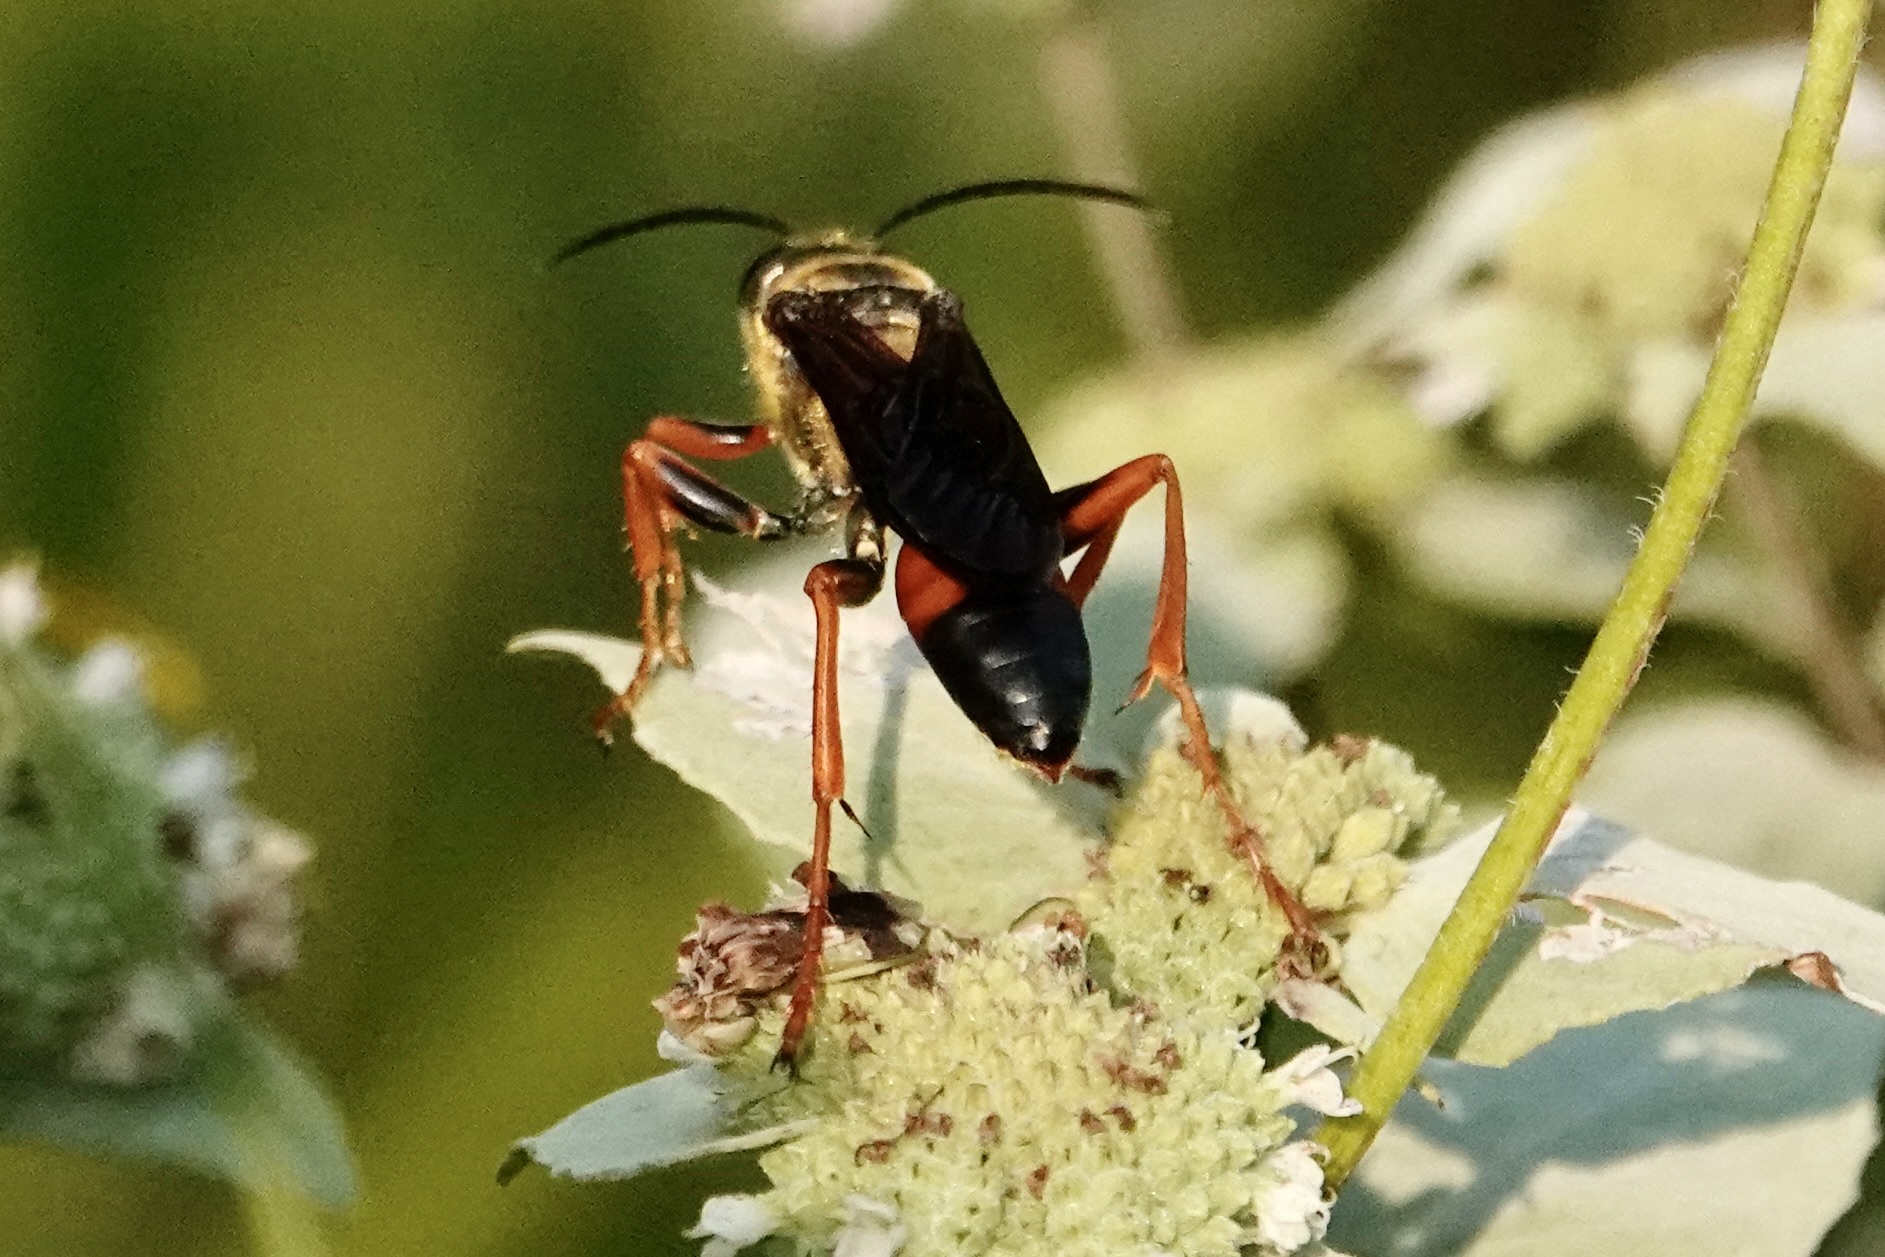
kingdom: Animalia
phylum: Arthropoda
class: Insecta
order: Hymenoptera
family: Sphecidae
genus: Sphex
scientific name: Sphex ichneumoneus
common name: Great golden digger wasp
